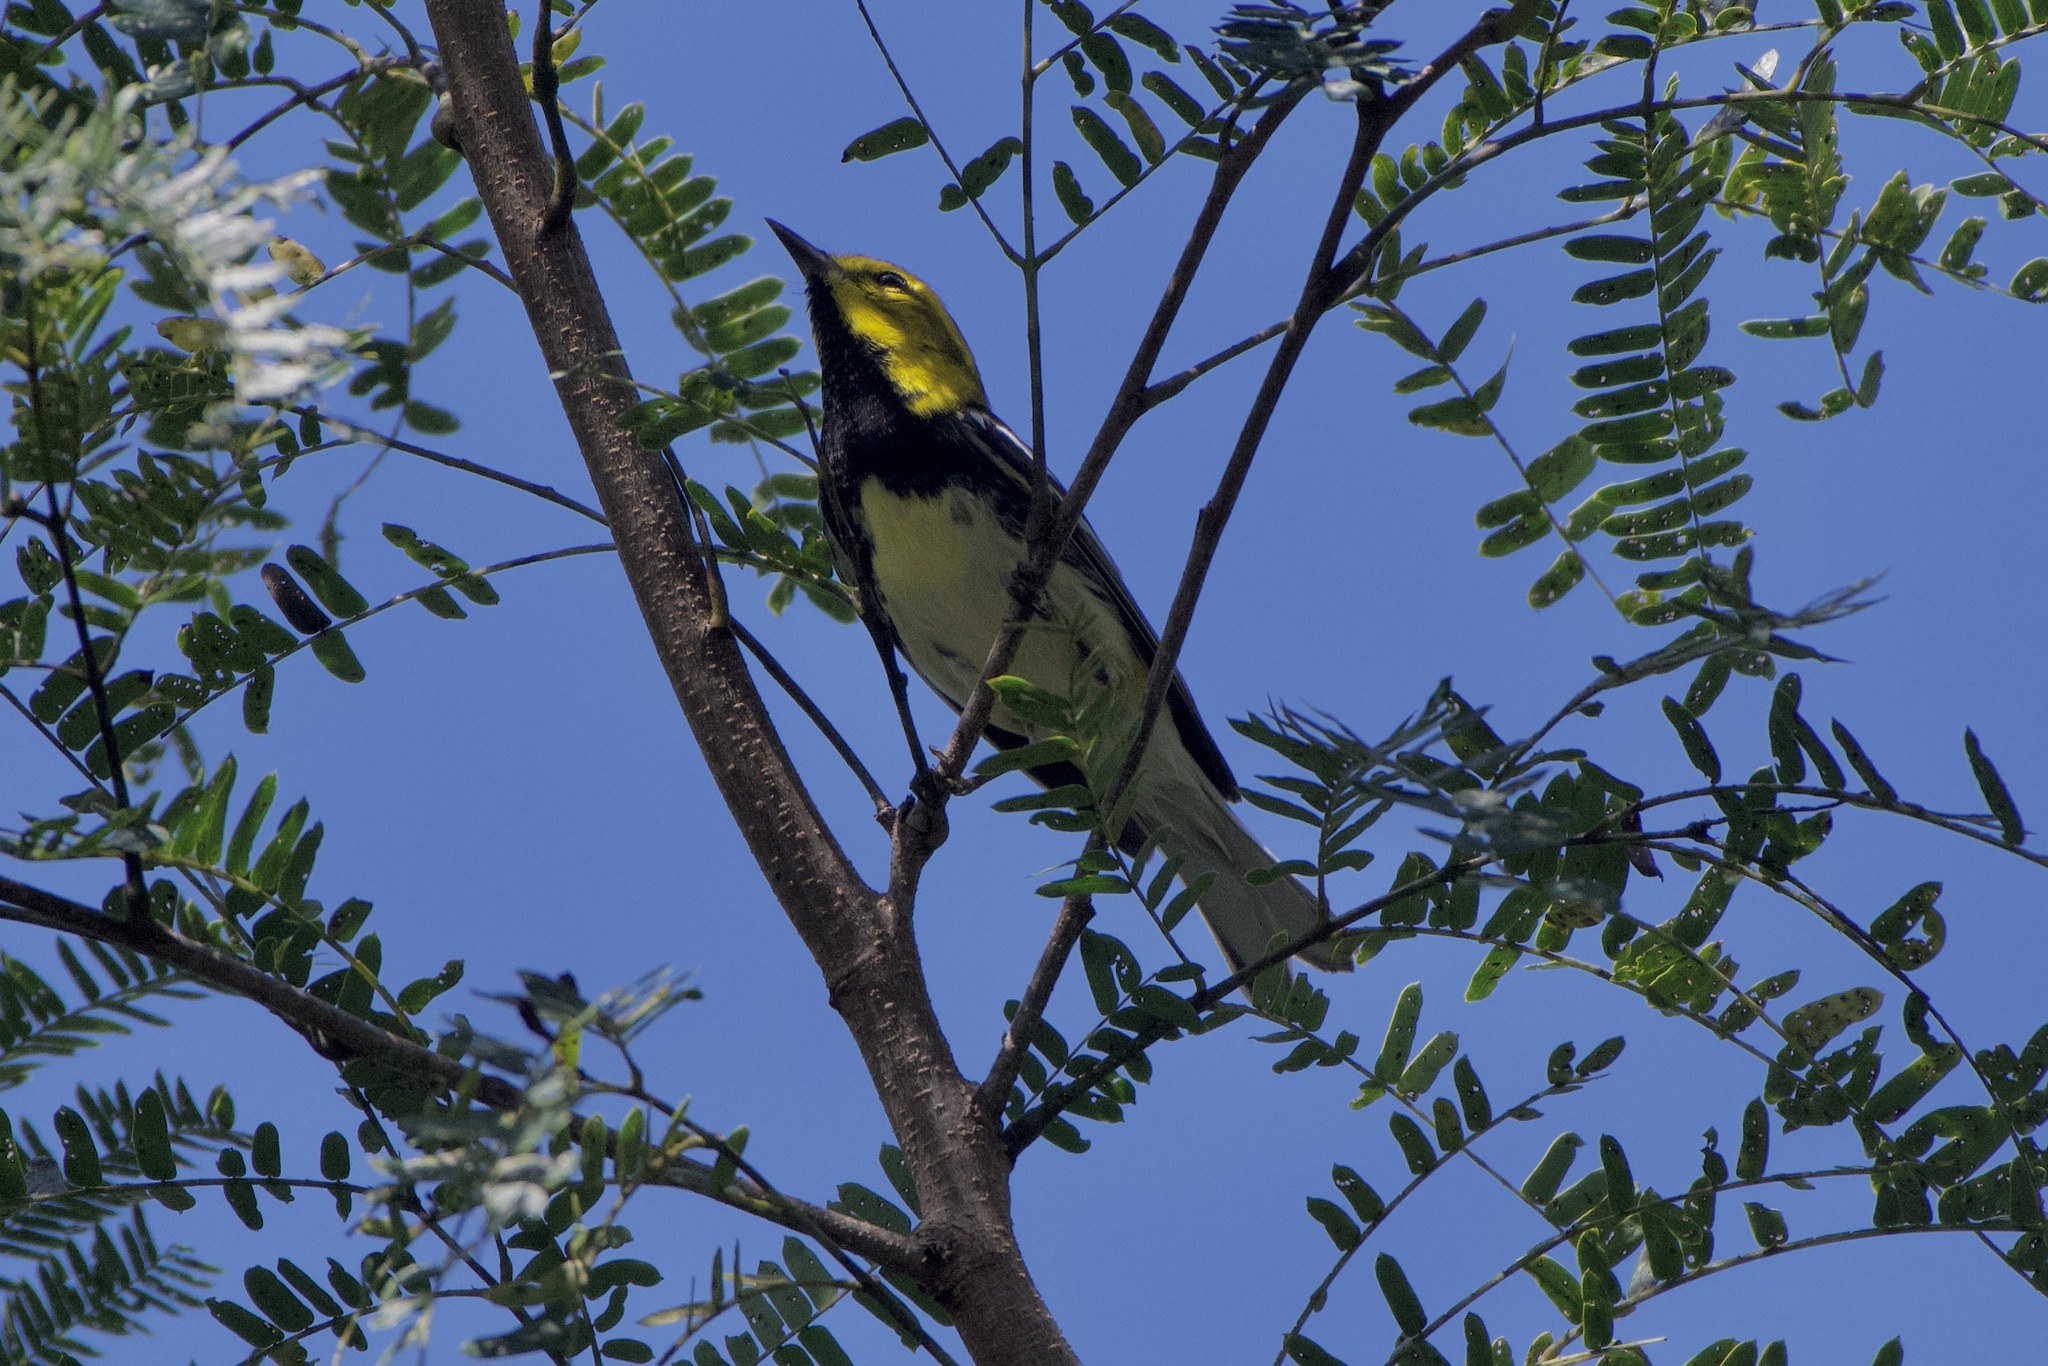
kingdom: Animalia
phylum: Chordata
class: Aves
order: Passeriformes
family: Parulidae
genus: Setophaga
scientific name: Setophaga virens
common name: Black-throated green warbler
